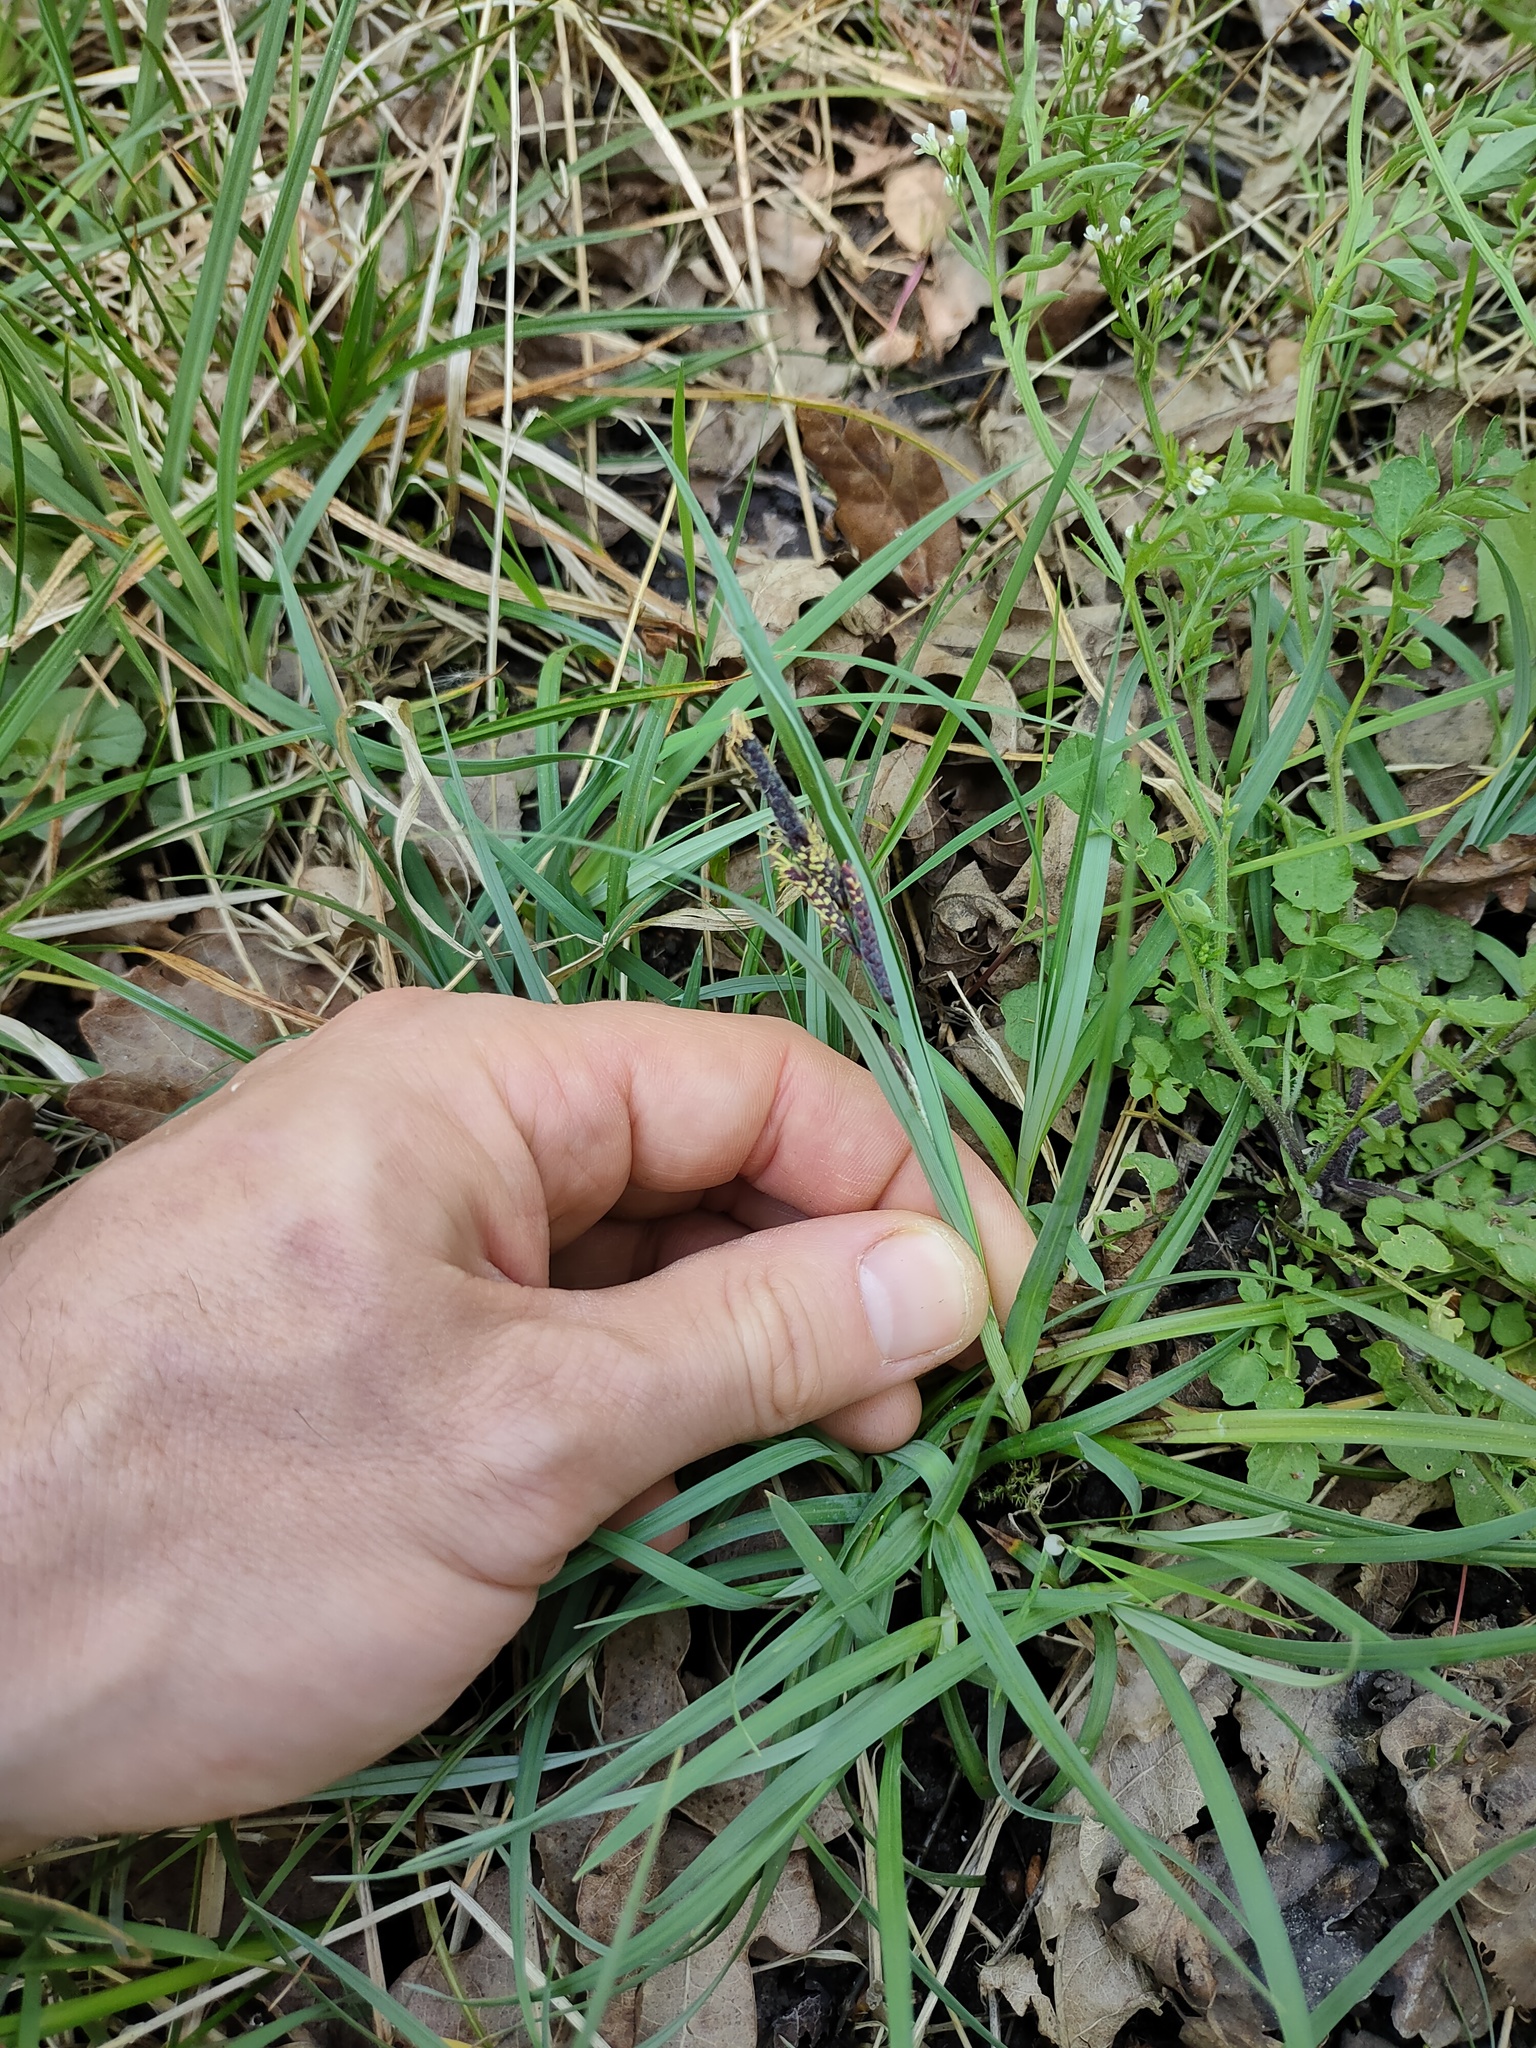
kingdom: Plantae
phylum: Tracheophyta
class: Liliopsida
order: Poales
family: Cyperaceae
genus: Carex
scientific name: Carex flacca
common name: Glaucous sedge
